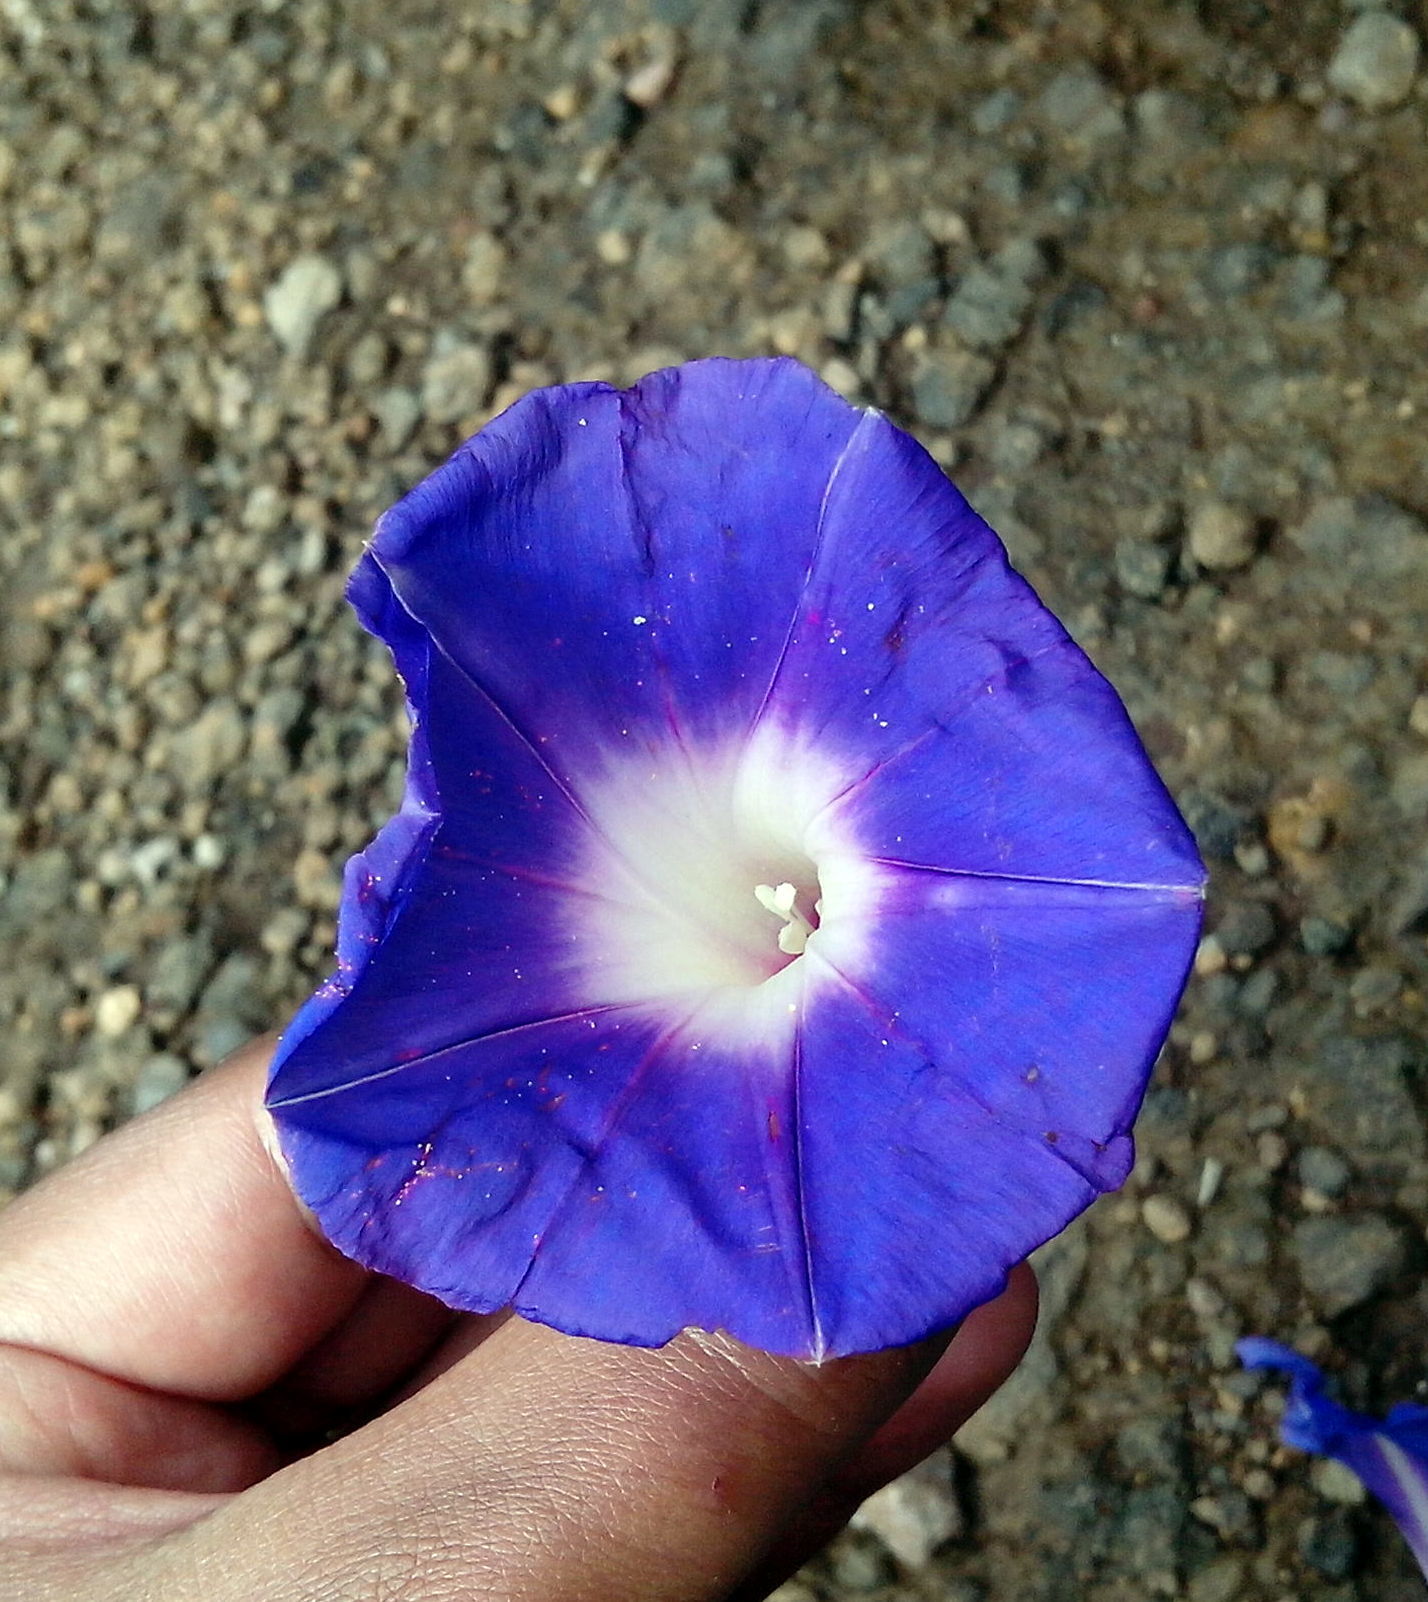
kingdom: Plantae
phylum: Tracheophyta
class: Magnoliopsida
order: Solanales
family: Convolvulaceae
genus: Ipomoea
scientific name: Ipomoea laeta
